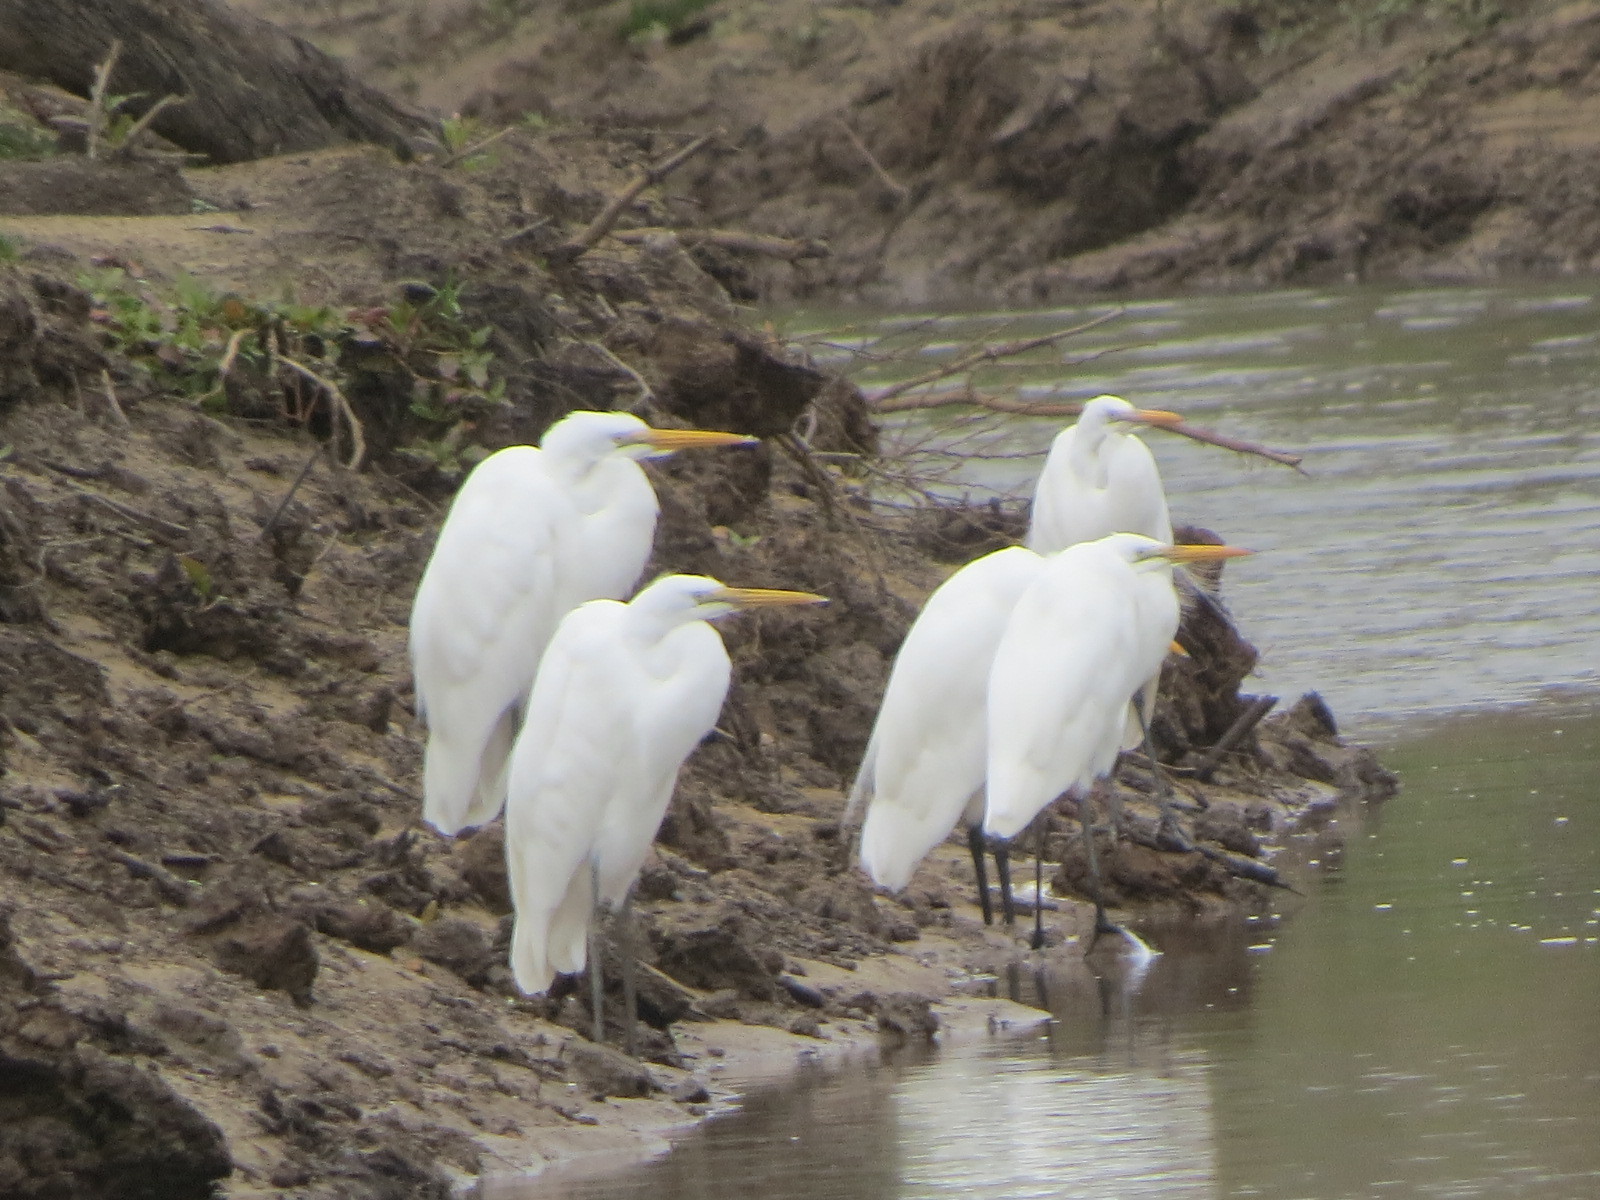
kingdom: Animalia
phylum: Chordata
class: Aves
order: Pelecaniformes
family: Ardeidae
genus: Ardea
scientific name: Ardea alba
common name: Great egret
